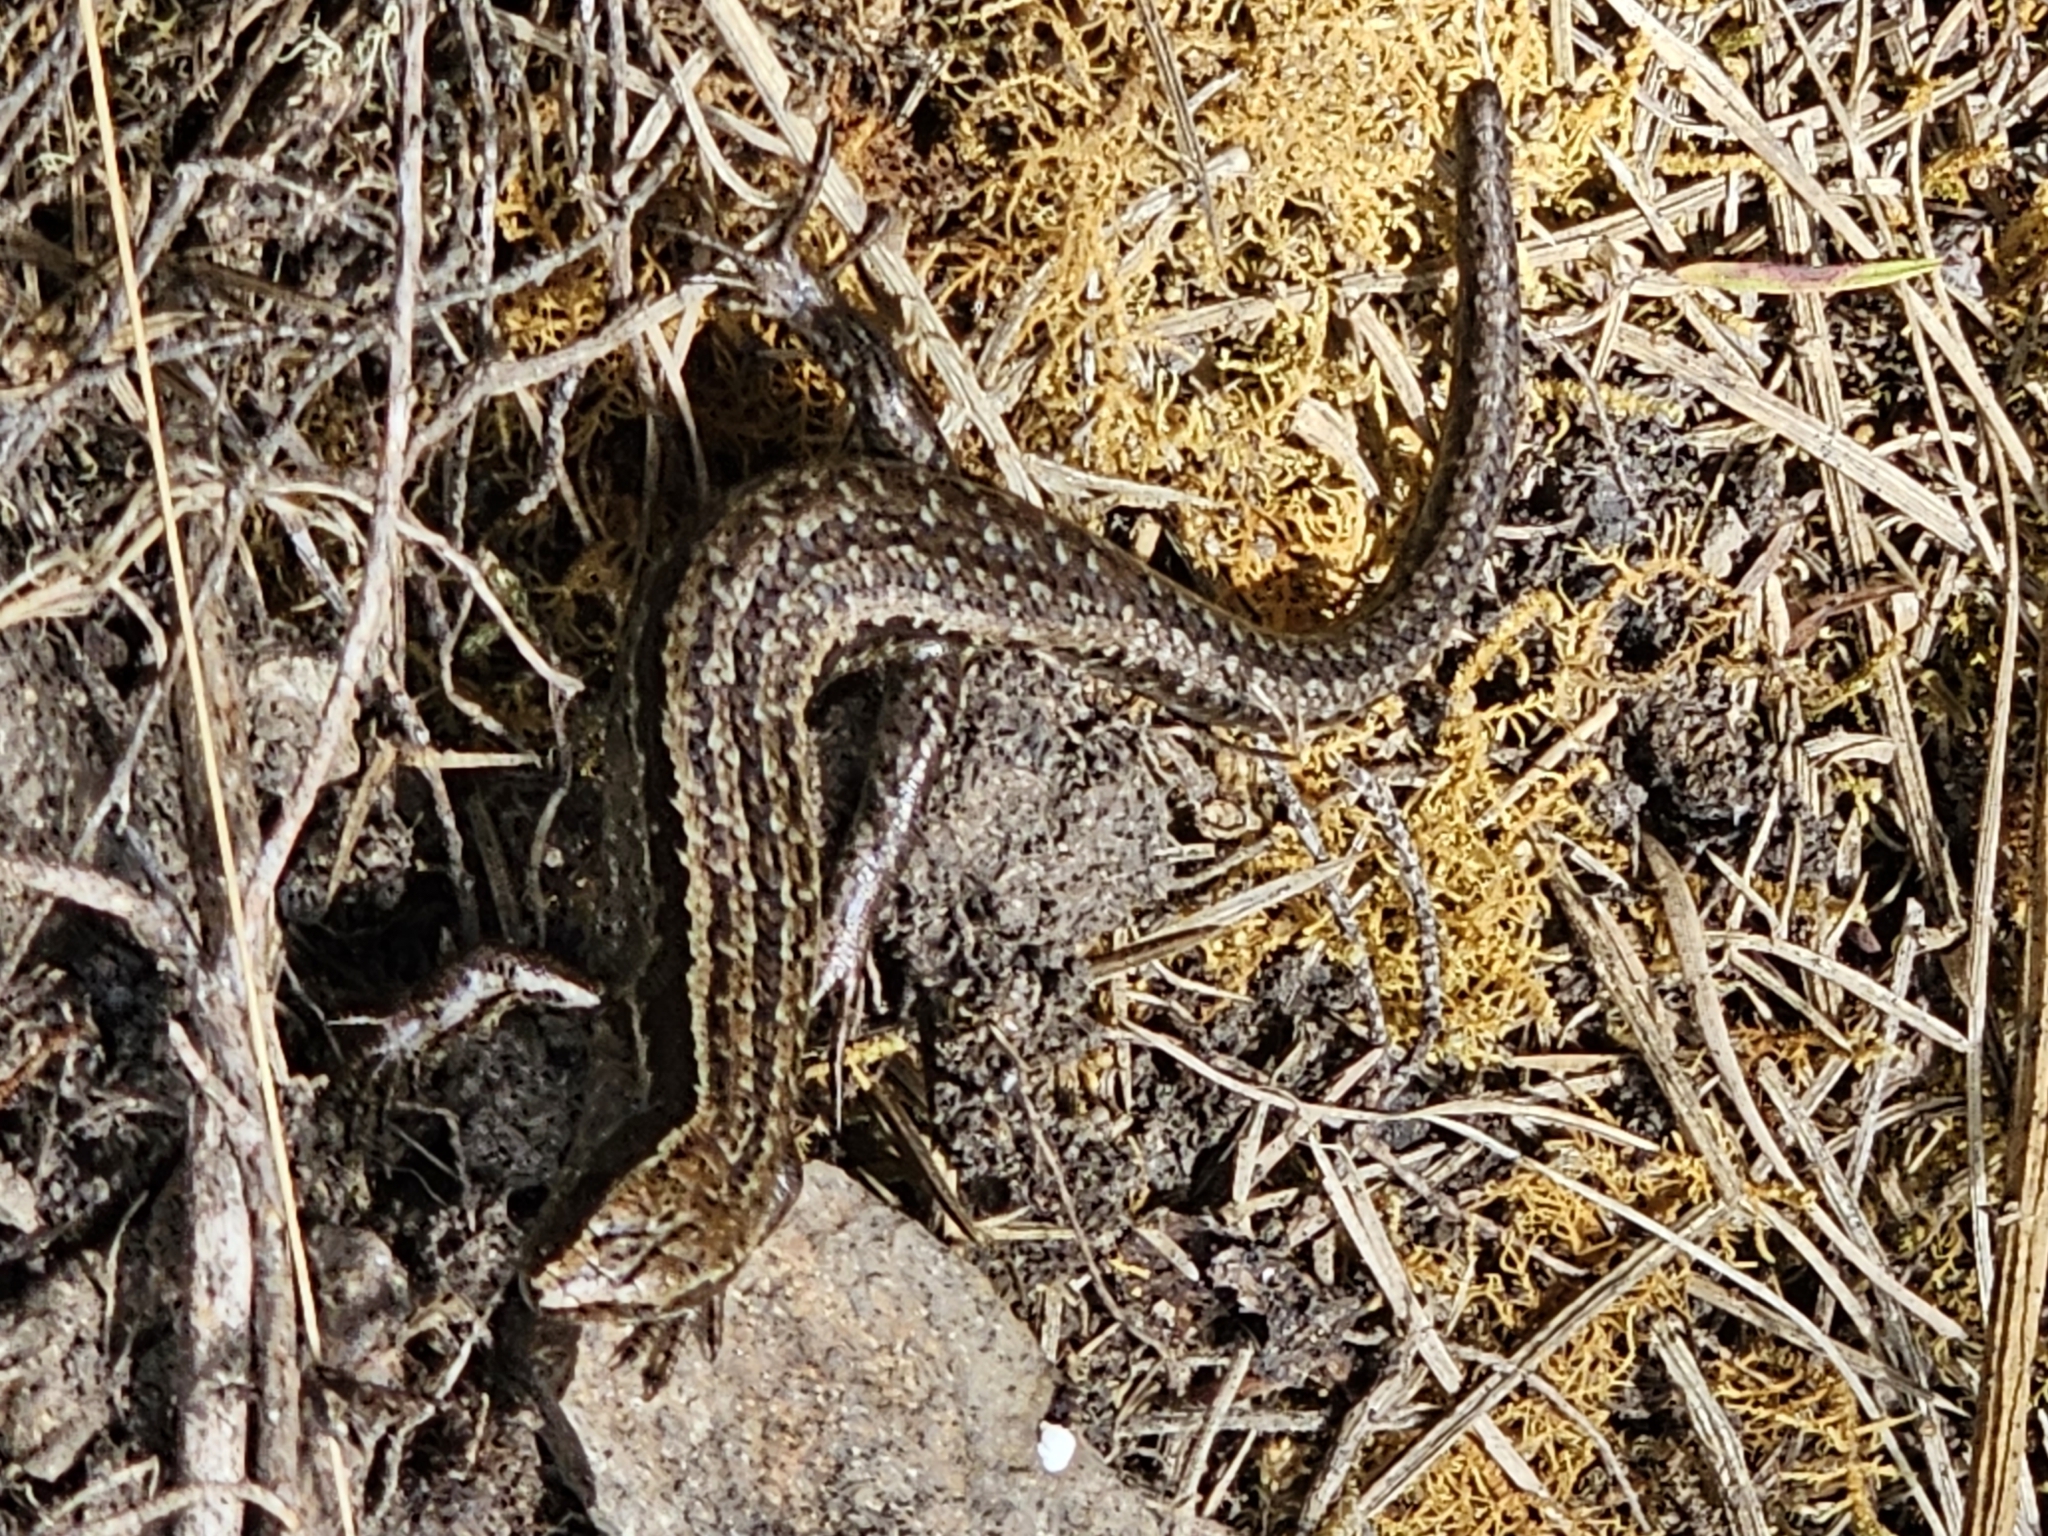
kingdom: Animalia
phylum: Chordata
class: Squamata
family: Scincidae
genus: Oligosoma
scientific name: Oligosoma polychroma
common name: Common new zealand skink
